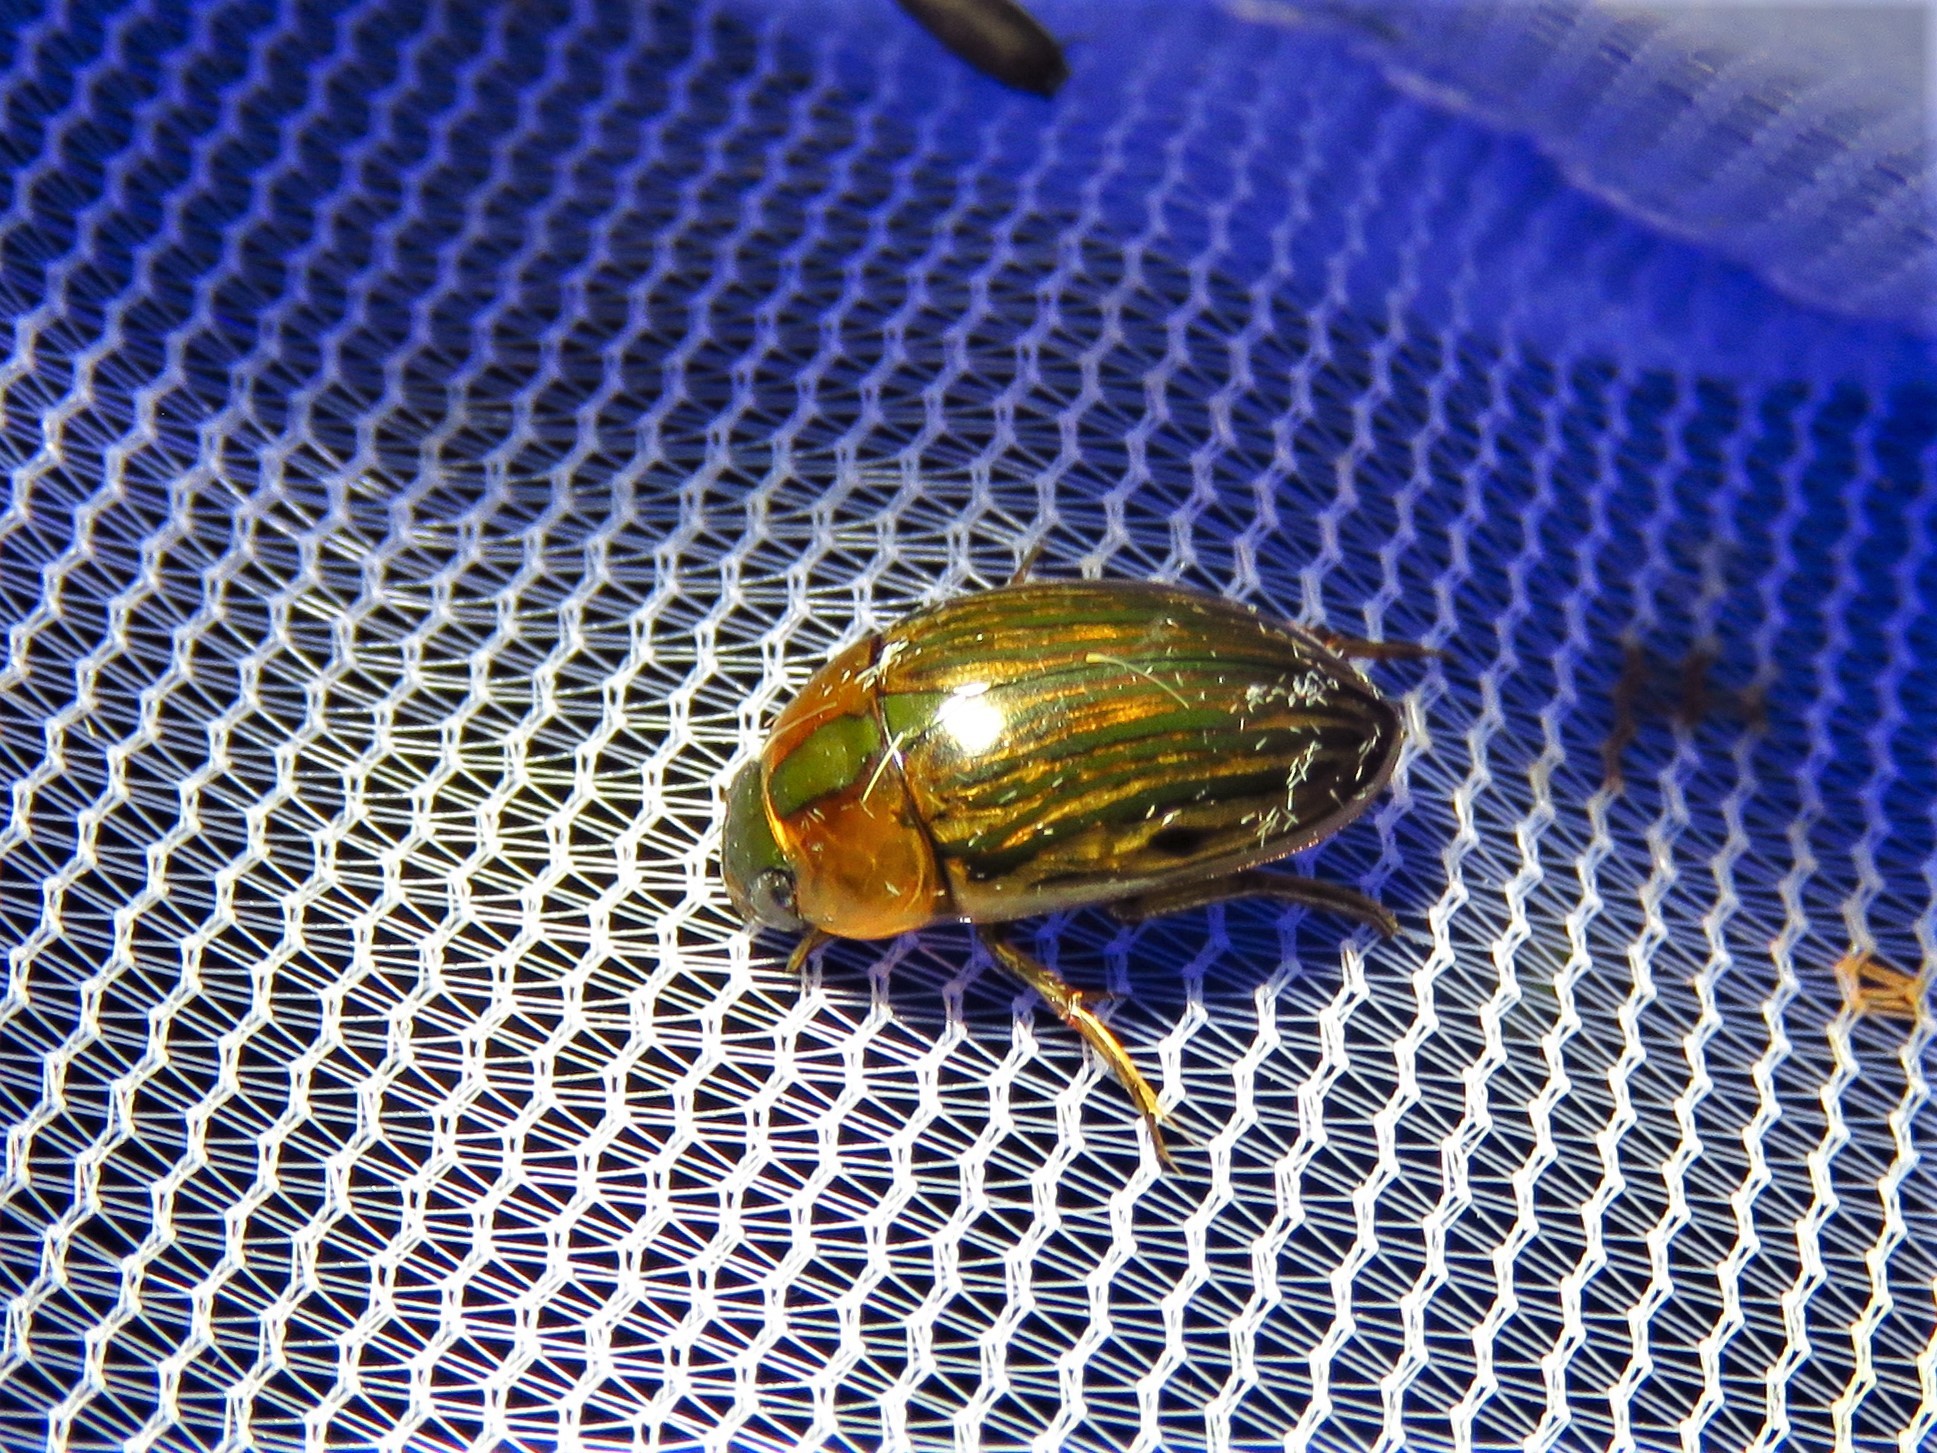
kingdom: Animalia
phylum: Arthropoda
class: Insecta
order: Coleoptera
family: Hydrophilidae
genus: Tropisternus
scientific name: Tropisternus collaris
